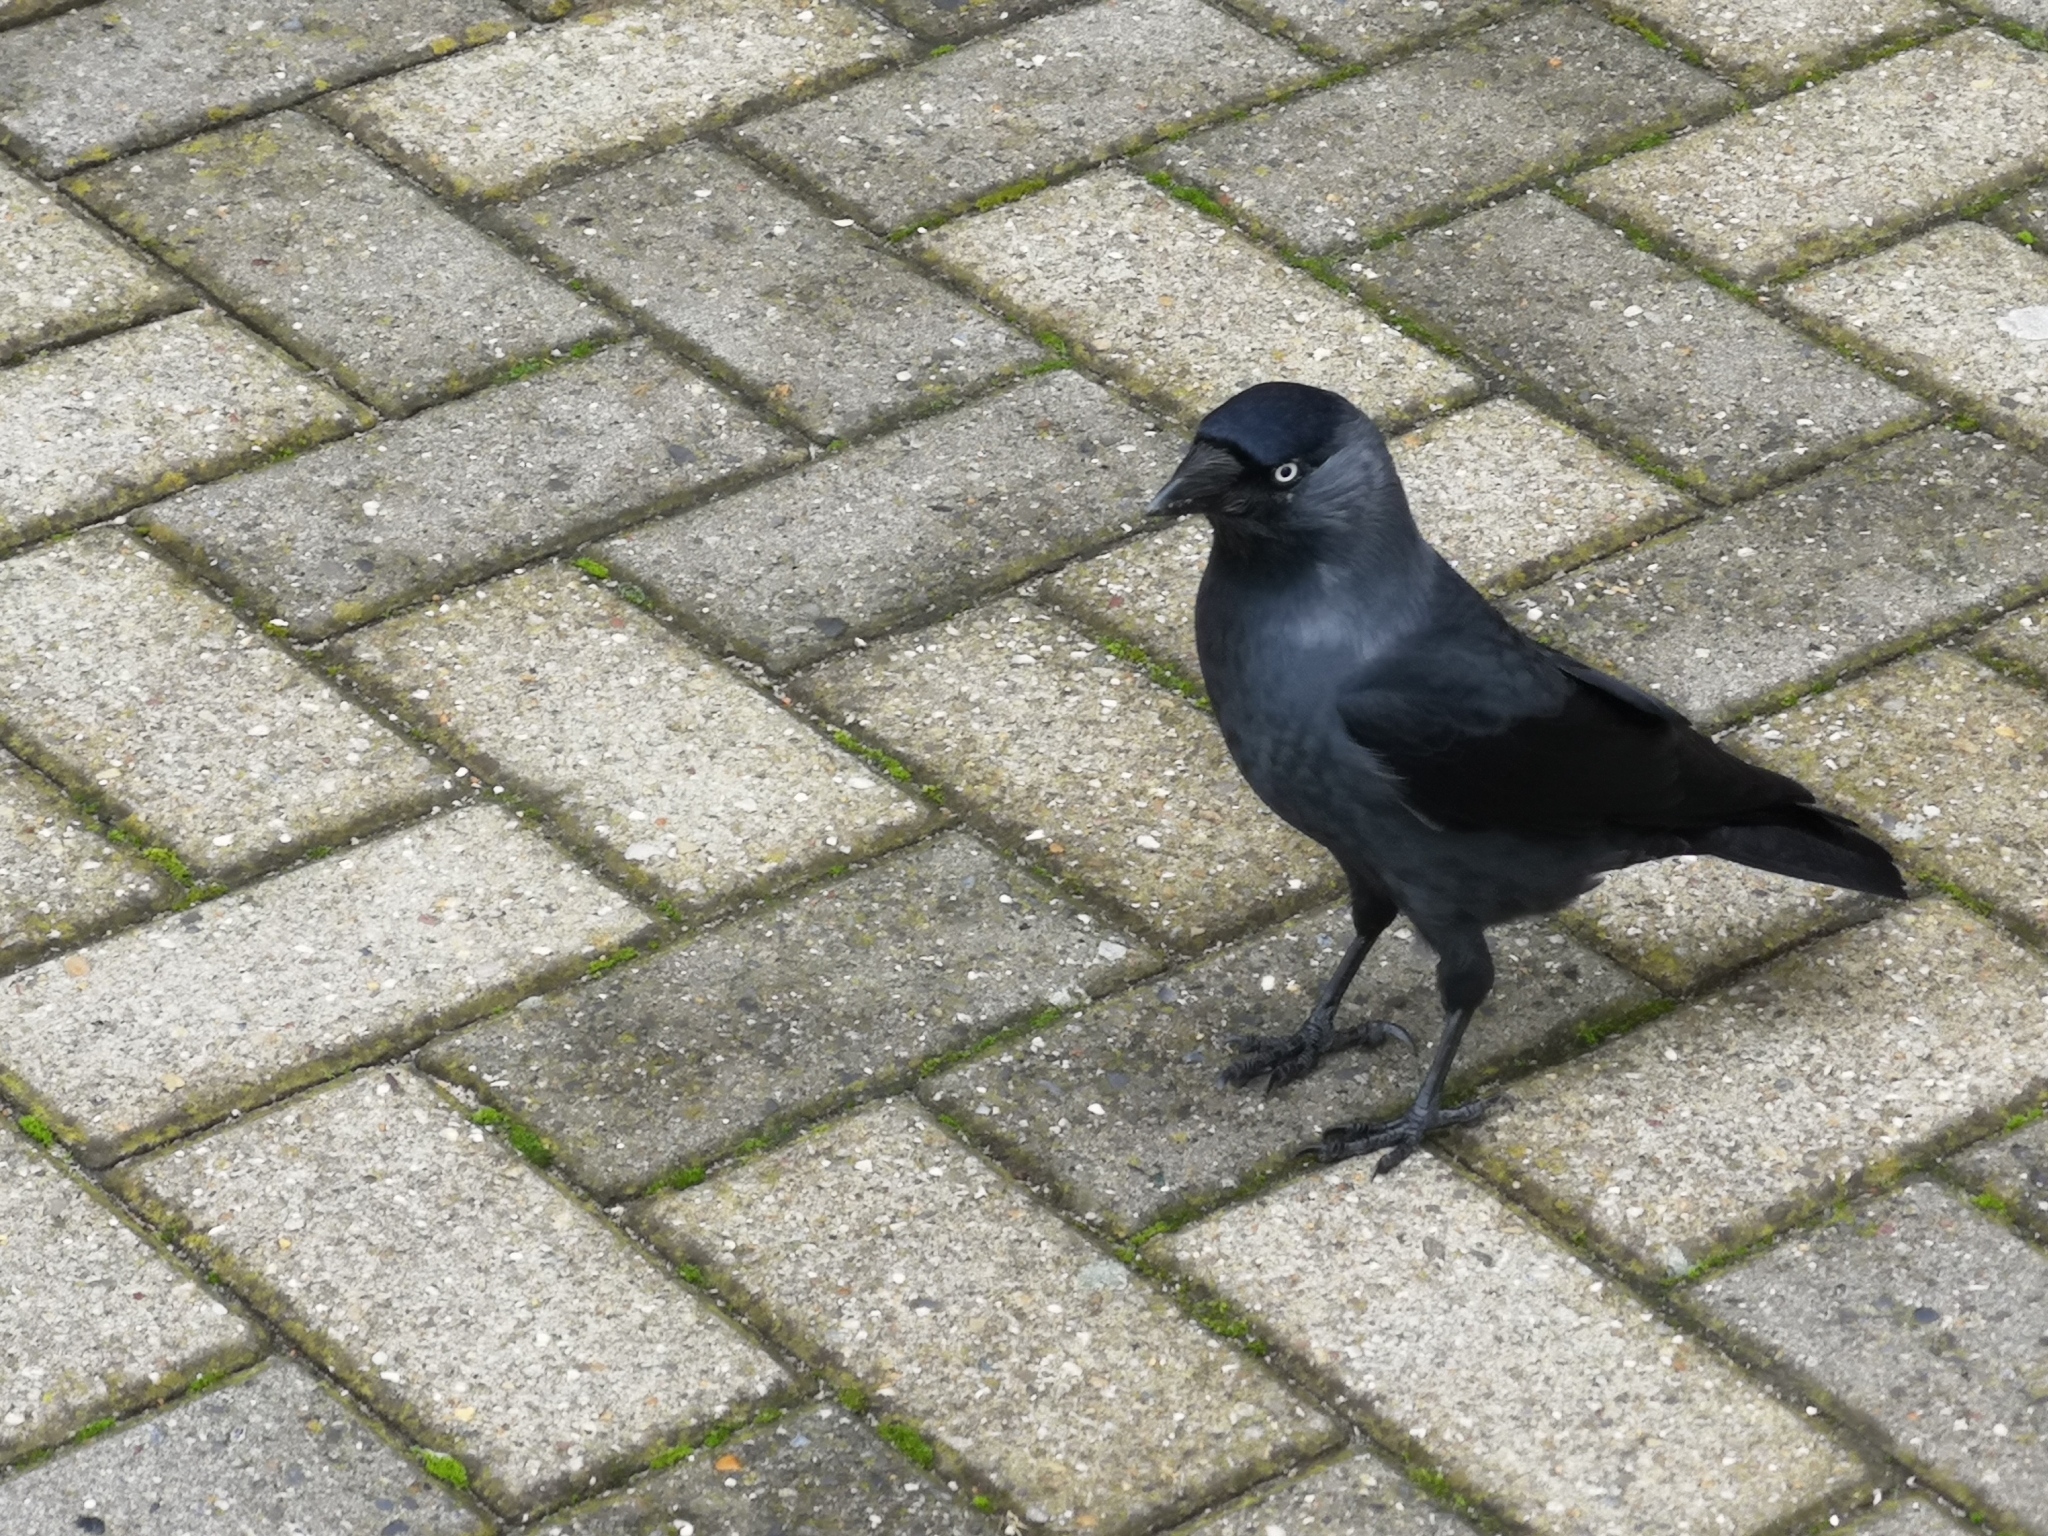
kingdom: Animalia
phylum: Chordata
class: Aves
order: Passeriformes
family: Corvidae
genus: Coloeus
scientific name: Coloeus monedula
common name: Western jackdaw
